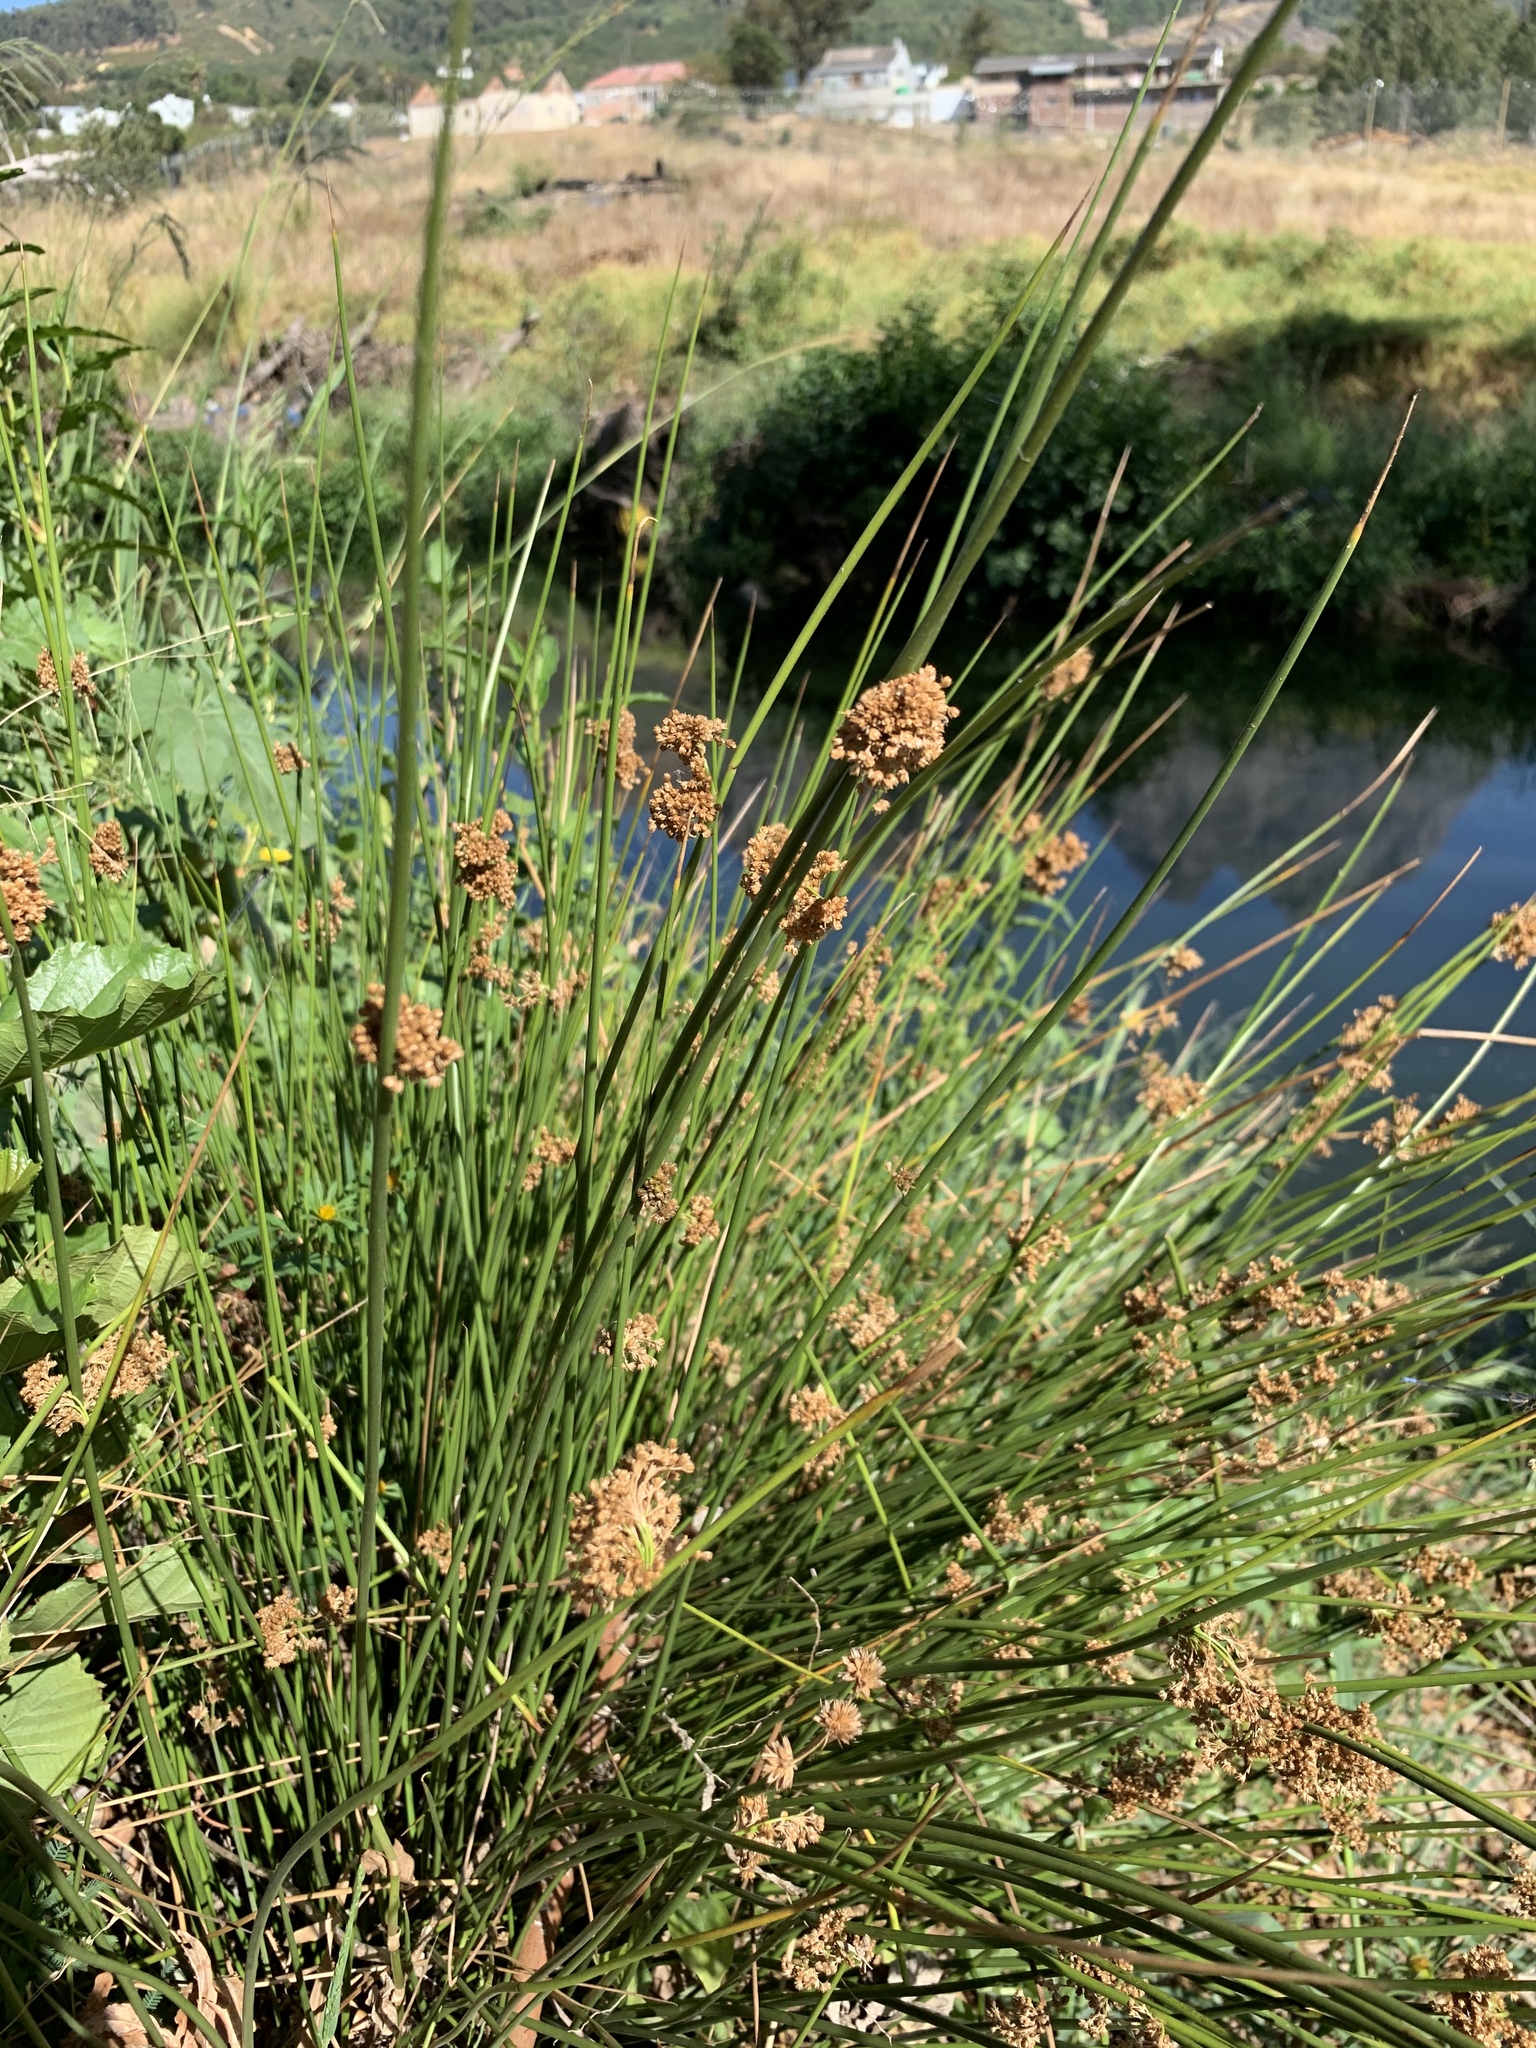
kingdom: Plantae
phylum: Tracheophyta
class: Liliopsida
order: Poales
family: Juncaceae
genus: Juncus
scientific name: Juncus effusus
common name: Soft rush
